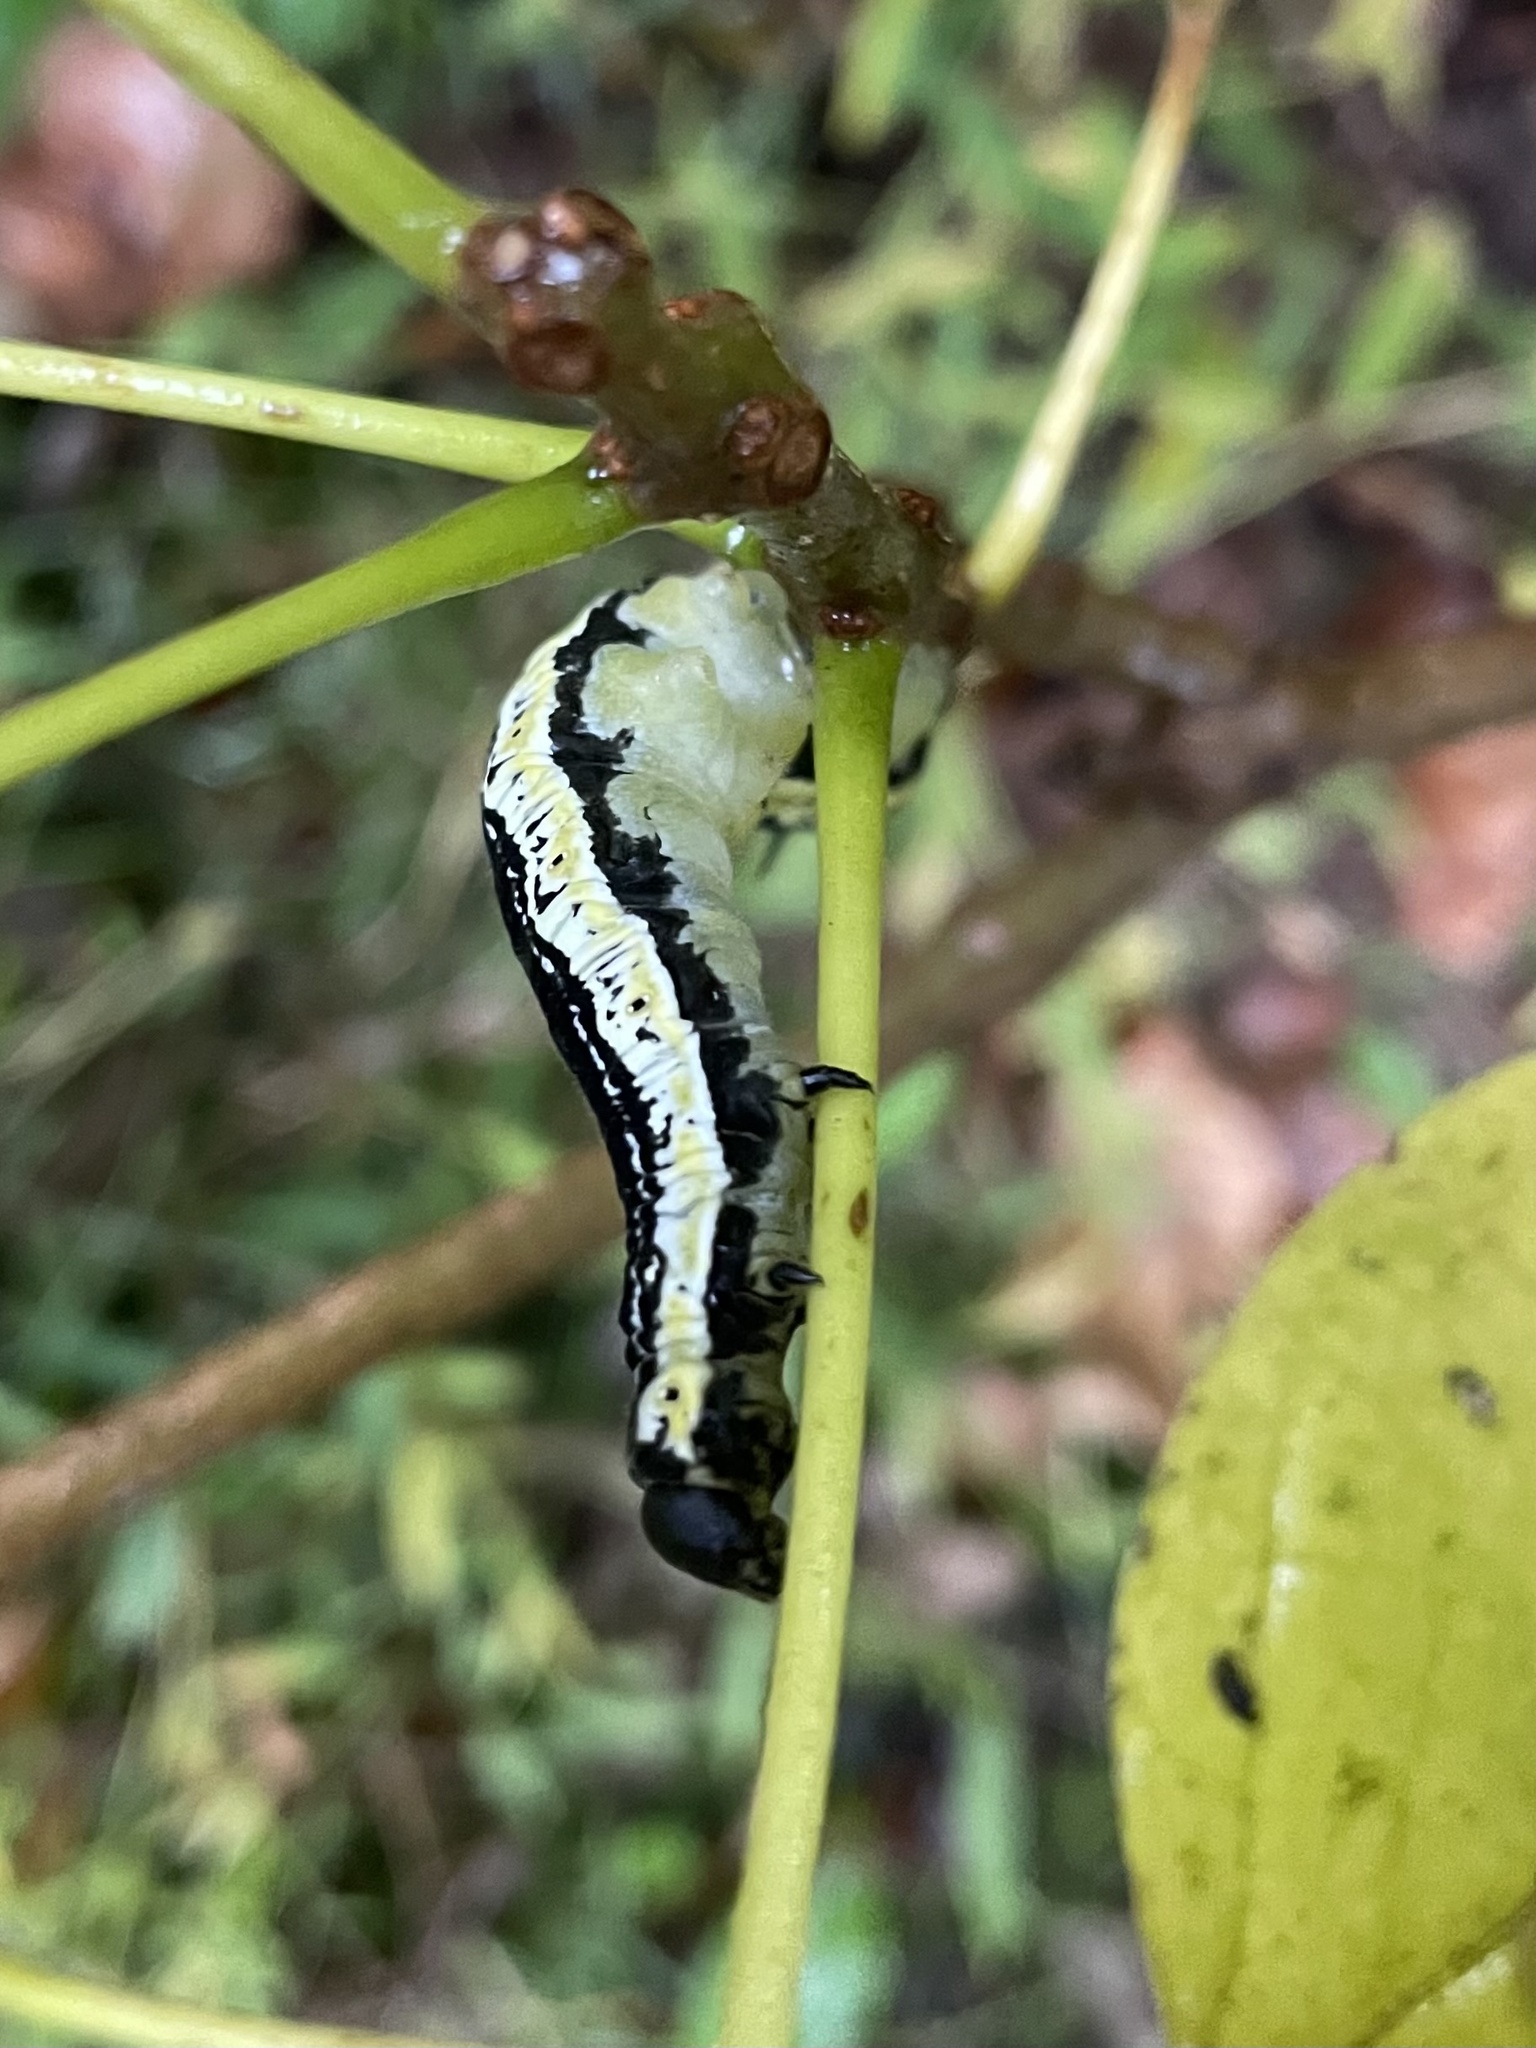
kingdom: Animalia
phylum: Arthropoda
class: Insecta
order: Lepidoptera
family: Sphingidae
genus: Ceratomia
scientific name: Ceratomia catalpae
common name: Catalpa hornworm
